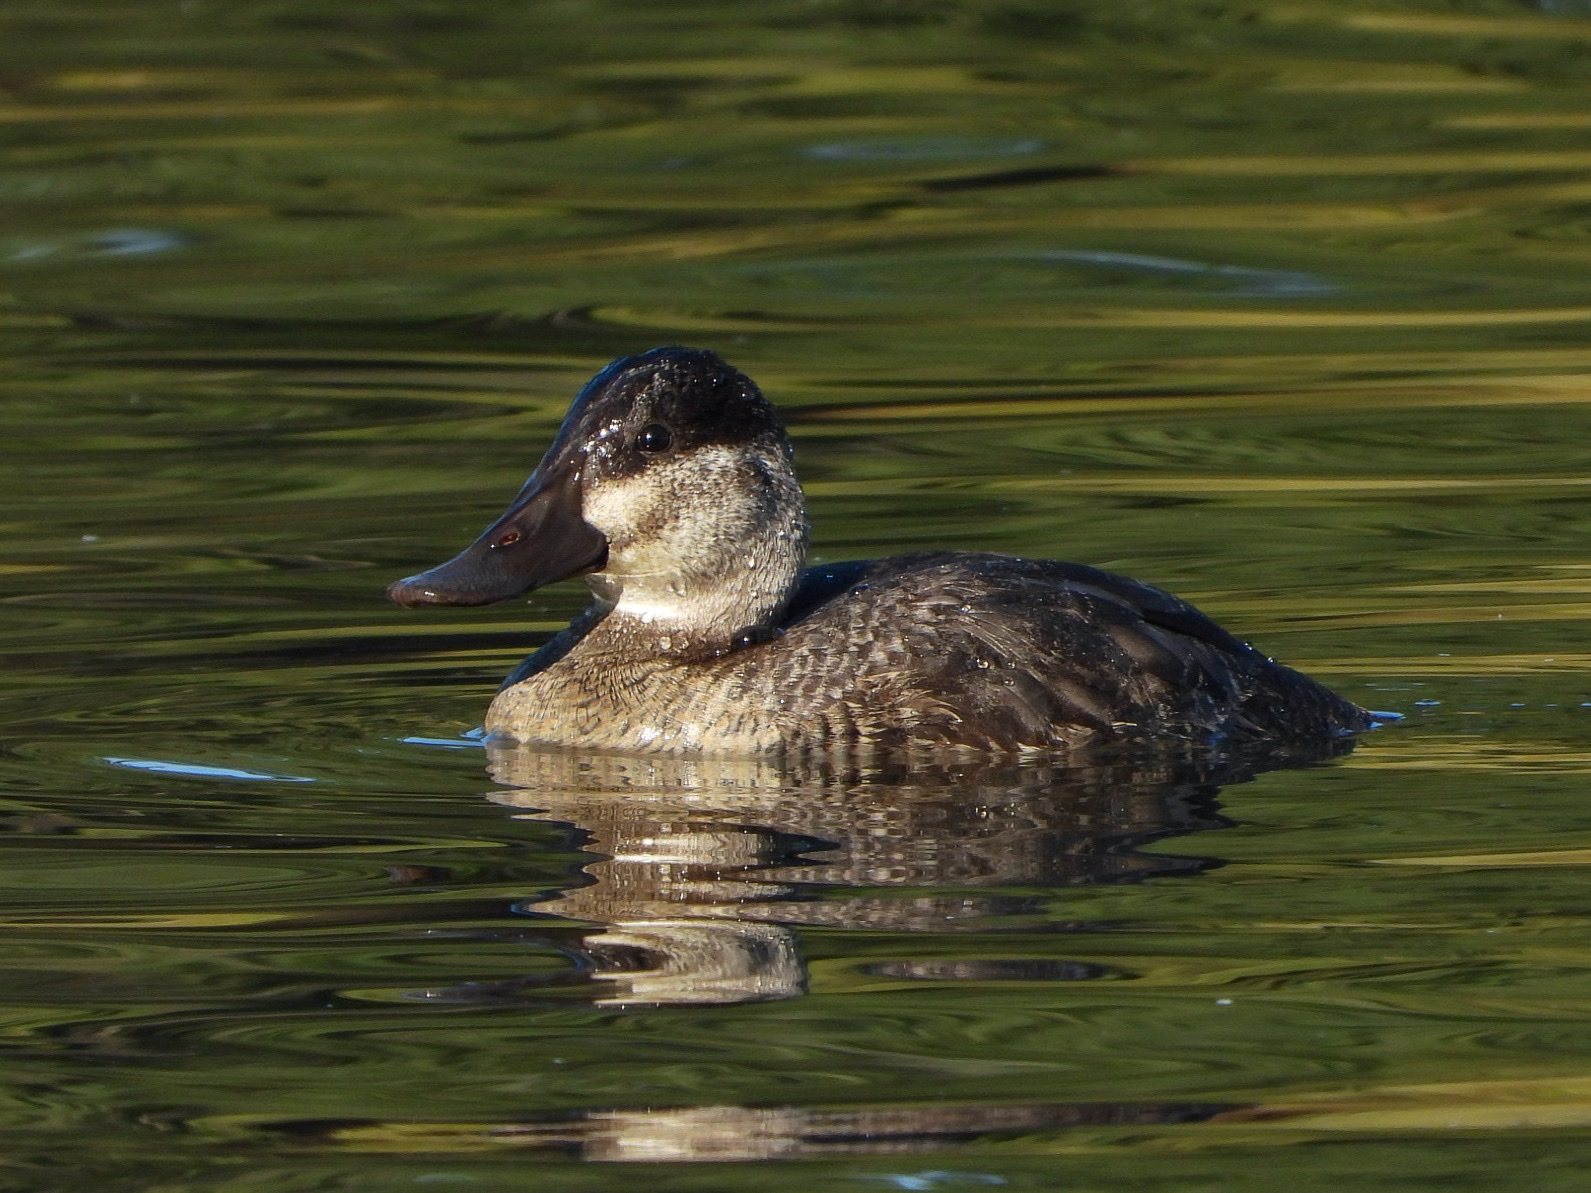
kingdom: Animalia
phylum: Chordata
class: Aves
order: Anseriformes
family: Anatidae
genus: Oxyura
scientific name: Oxyura jamaicensis
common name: Ruddy duck
